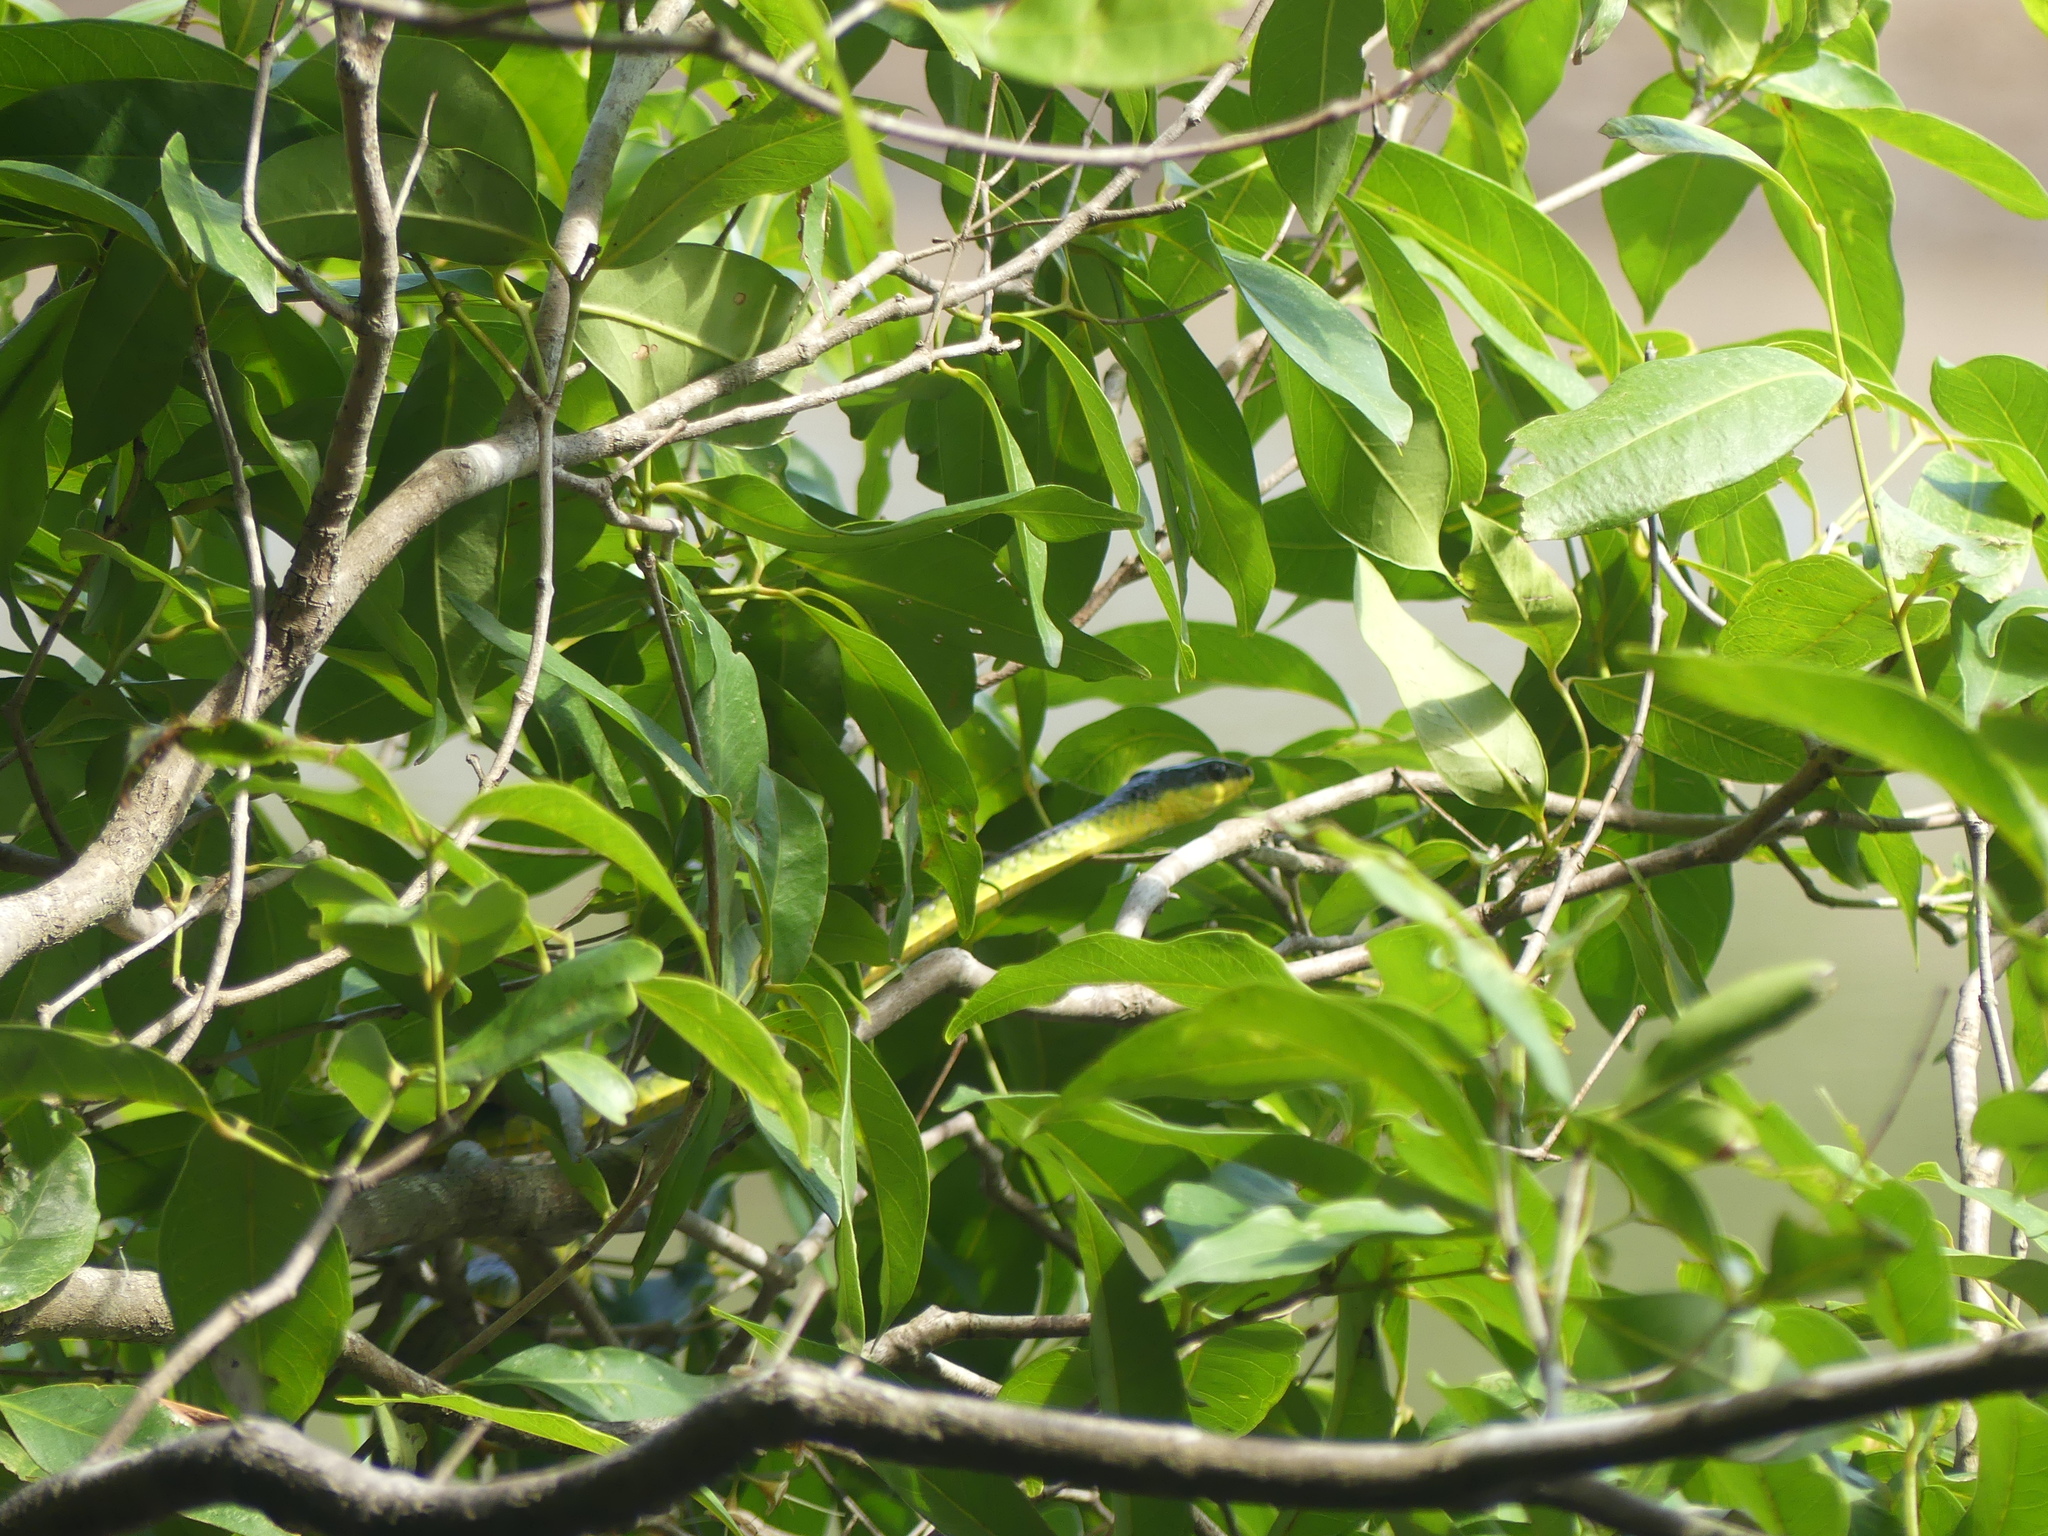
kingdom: Animalia
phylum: Chordata
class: Squamata
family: Colubridae
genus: Dendrelaphis
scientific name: Dendrelaphis punctulatus
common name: Common tree snake
